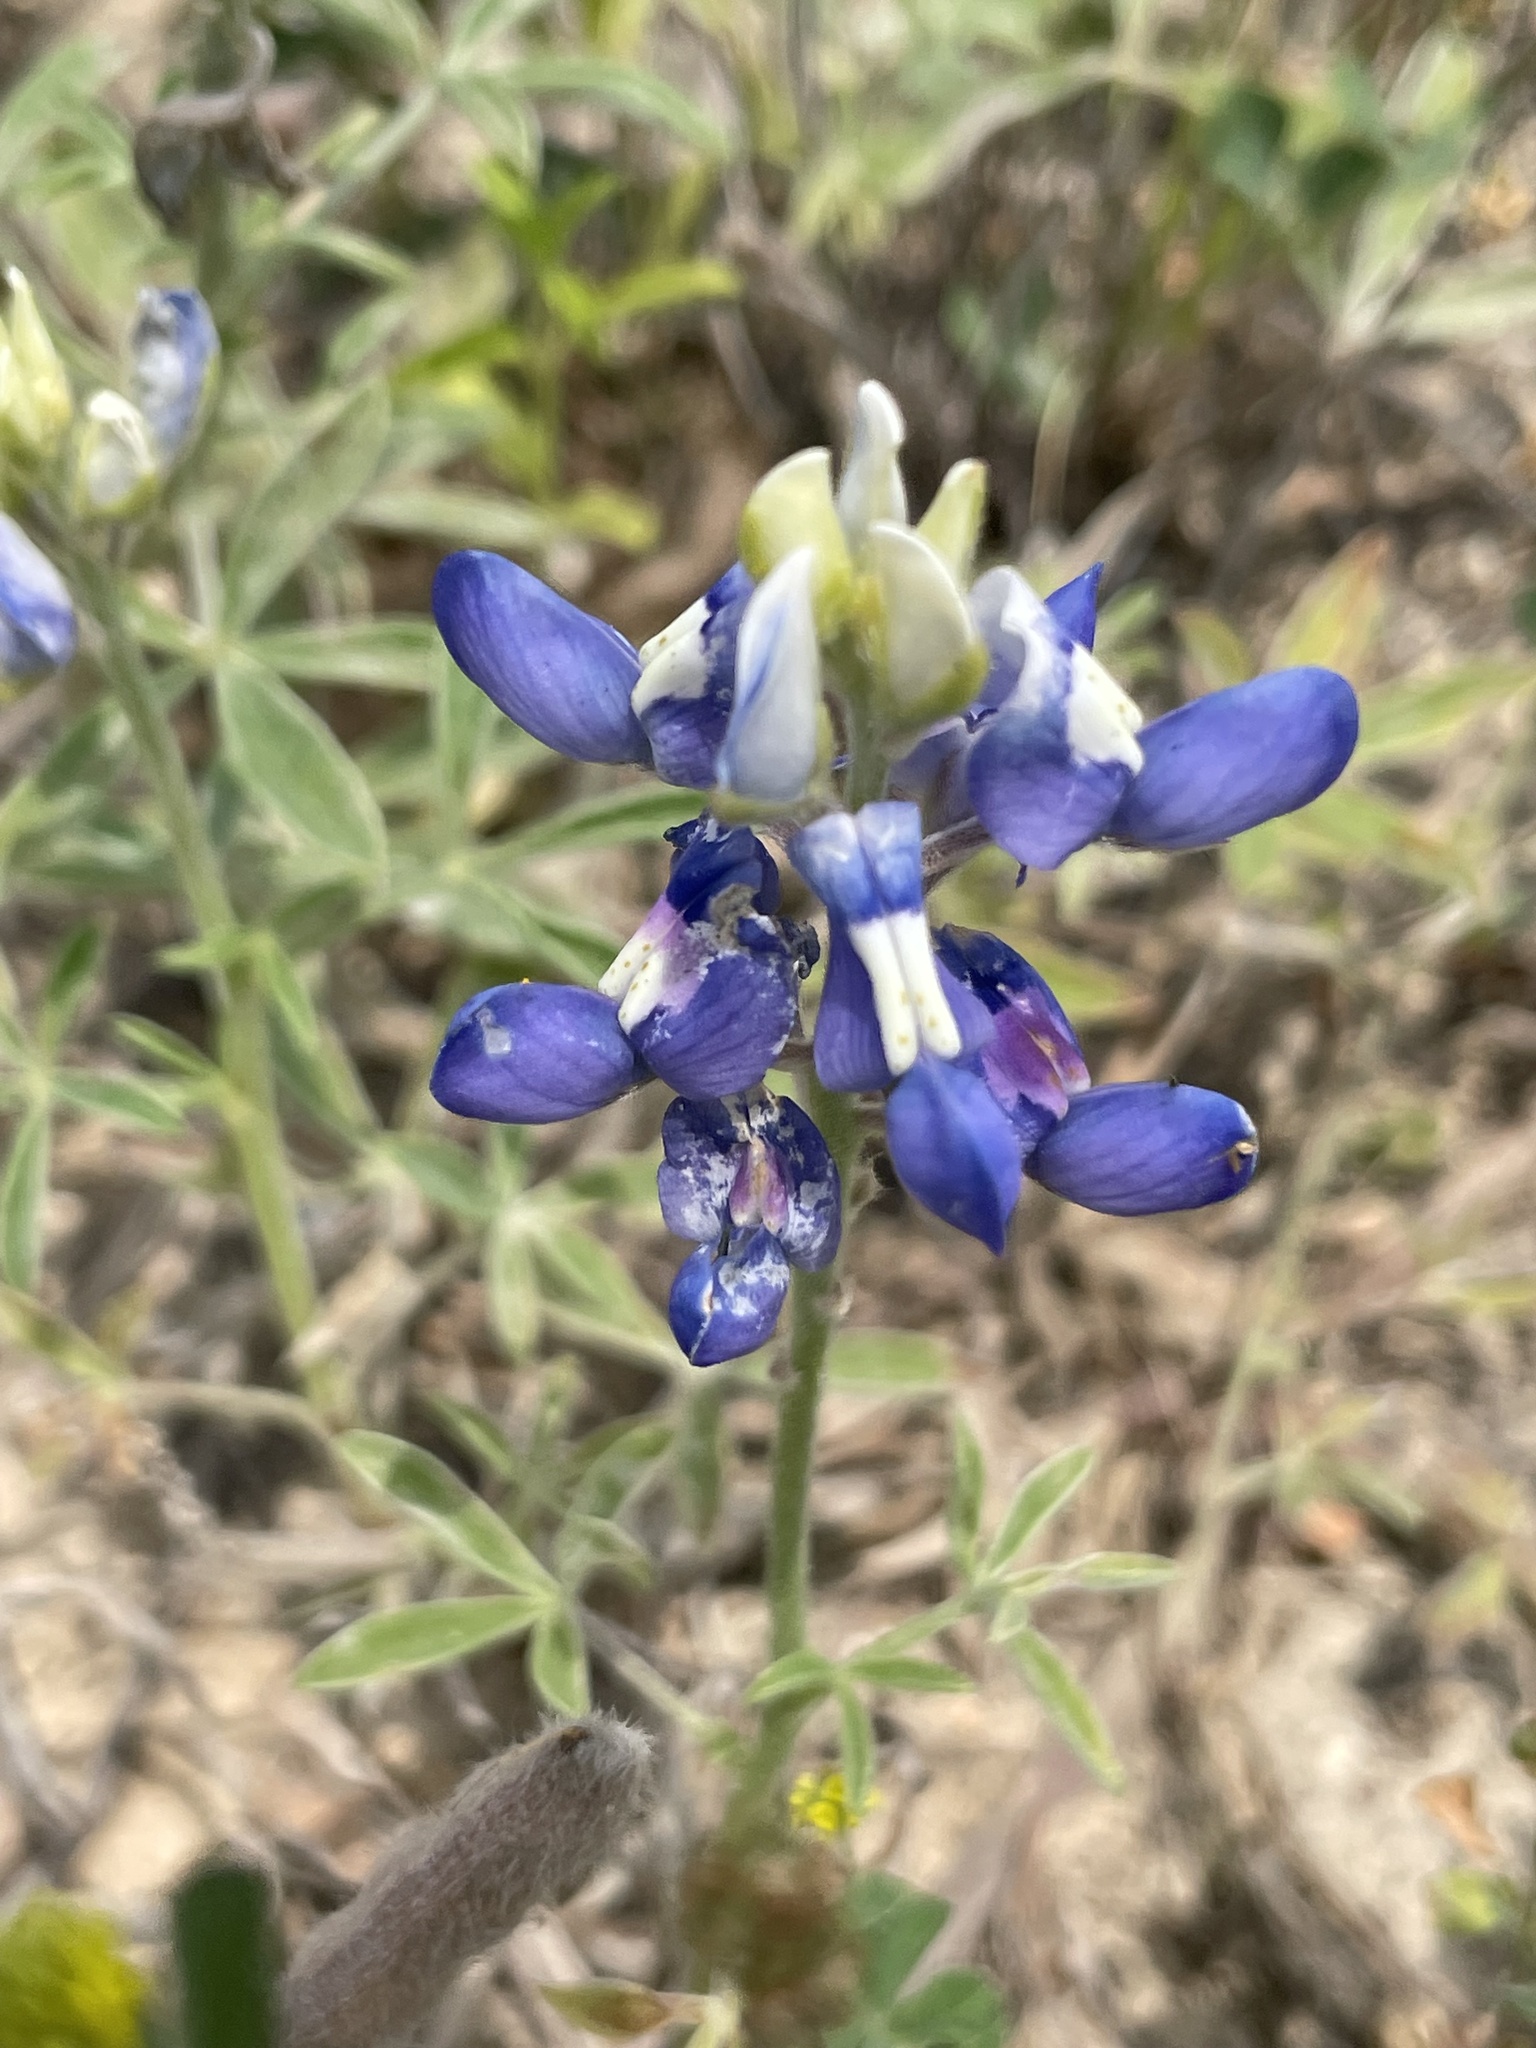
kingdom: Plantae
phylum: Tracheophyta
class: Magnoliopsida
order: Fabales
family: Fabaceae
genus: Lupinus
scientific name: Lupinus texensis
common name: Texas bluebonnet
